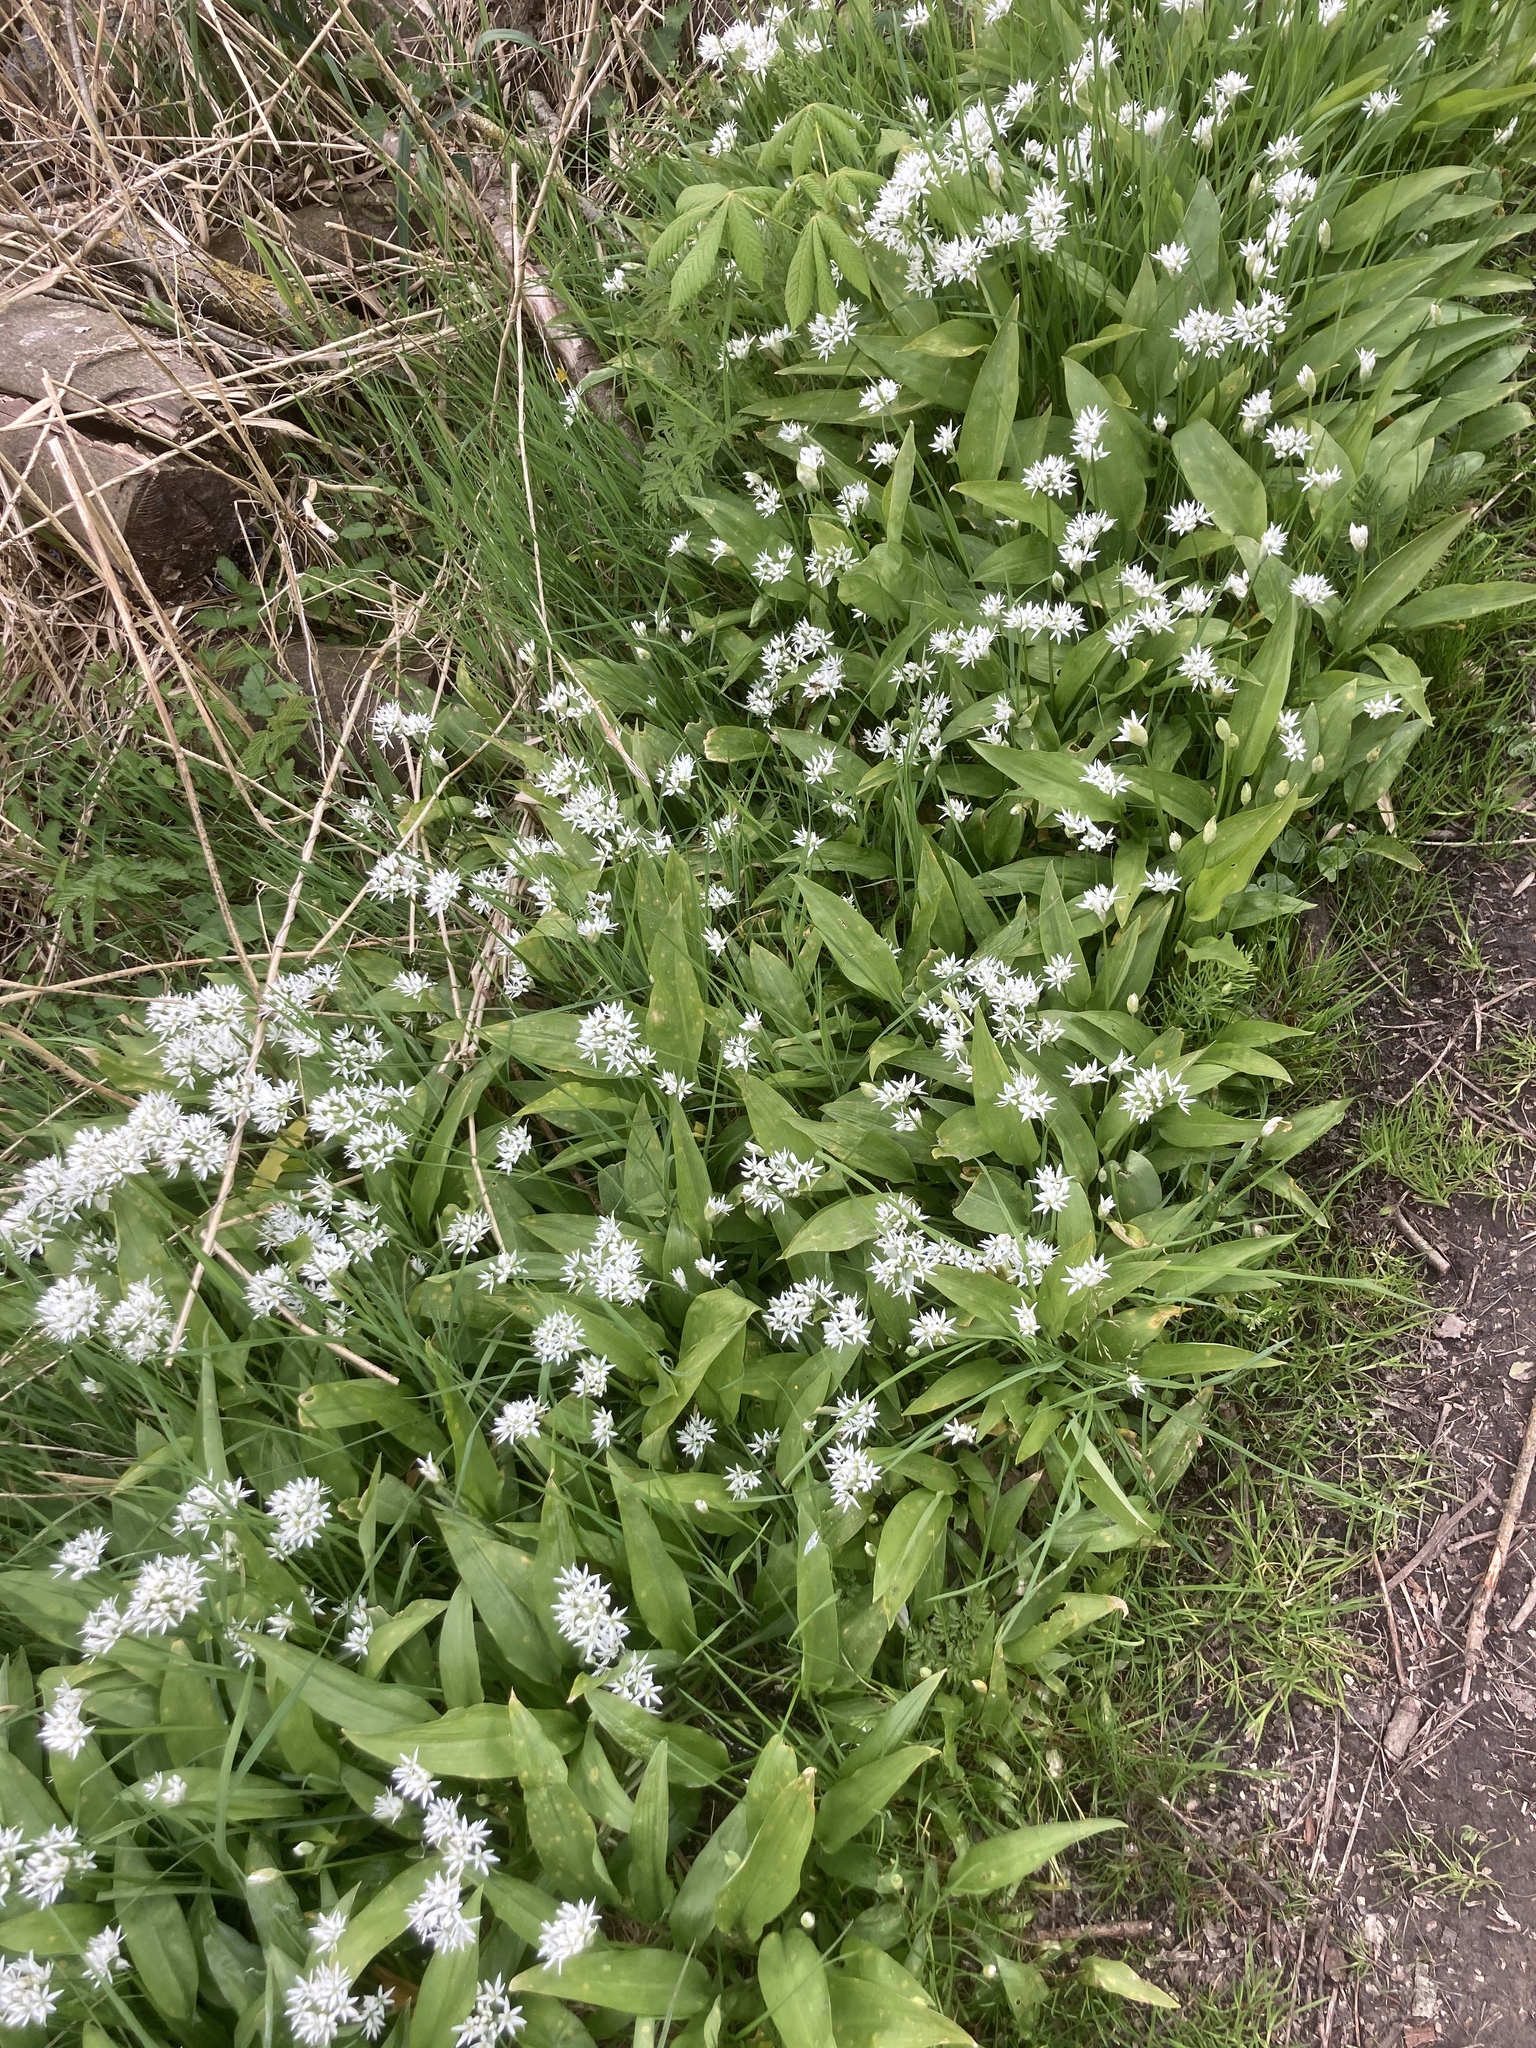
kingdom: Plantae
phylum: Tracheophyta
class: Liliopsida
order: Asparagales
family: Amaryllidaceae
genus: Allium
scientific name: Allium ursinum
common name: Ramsons
